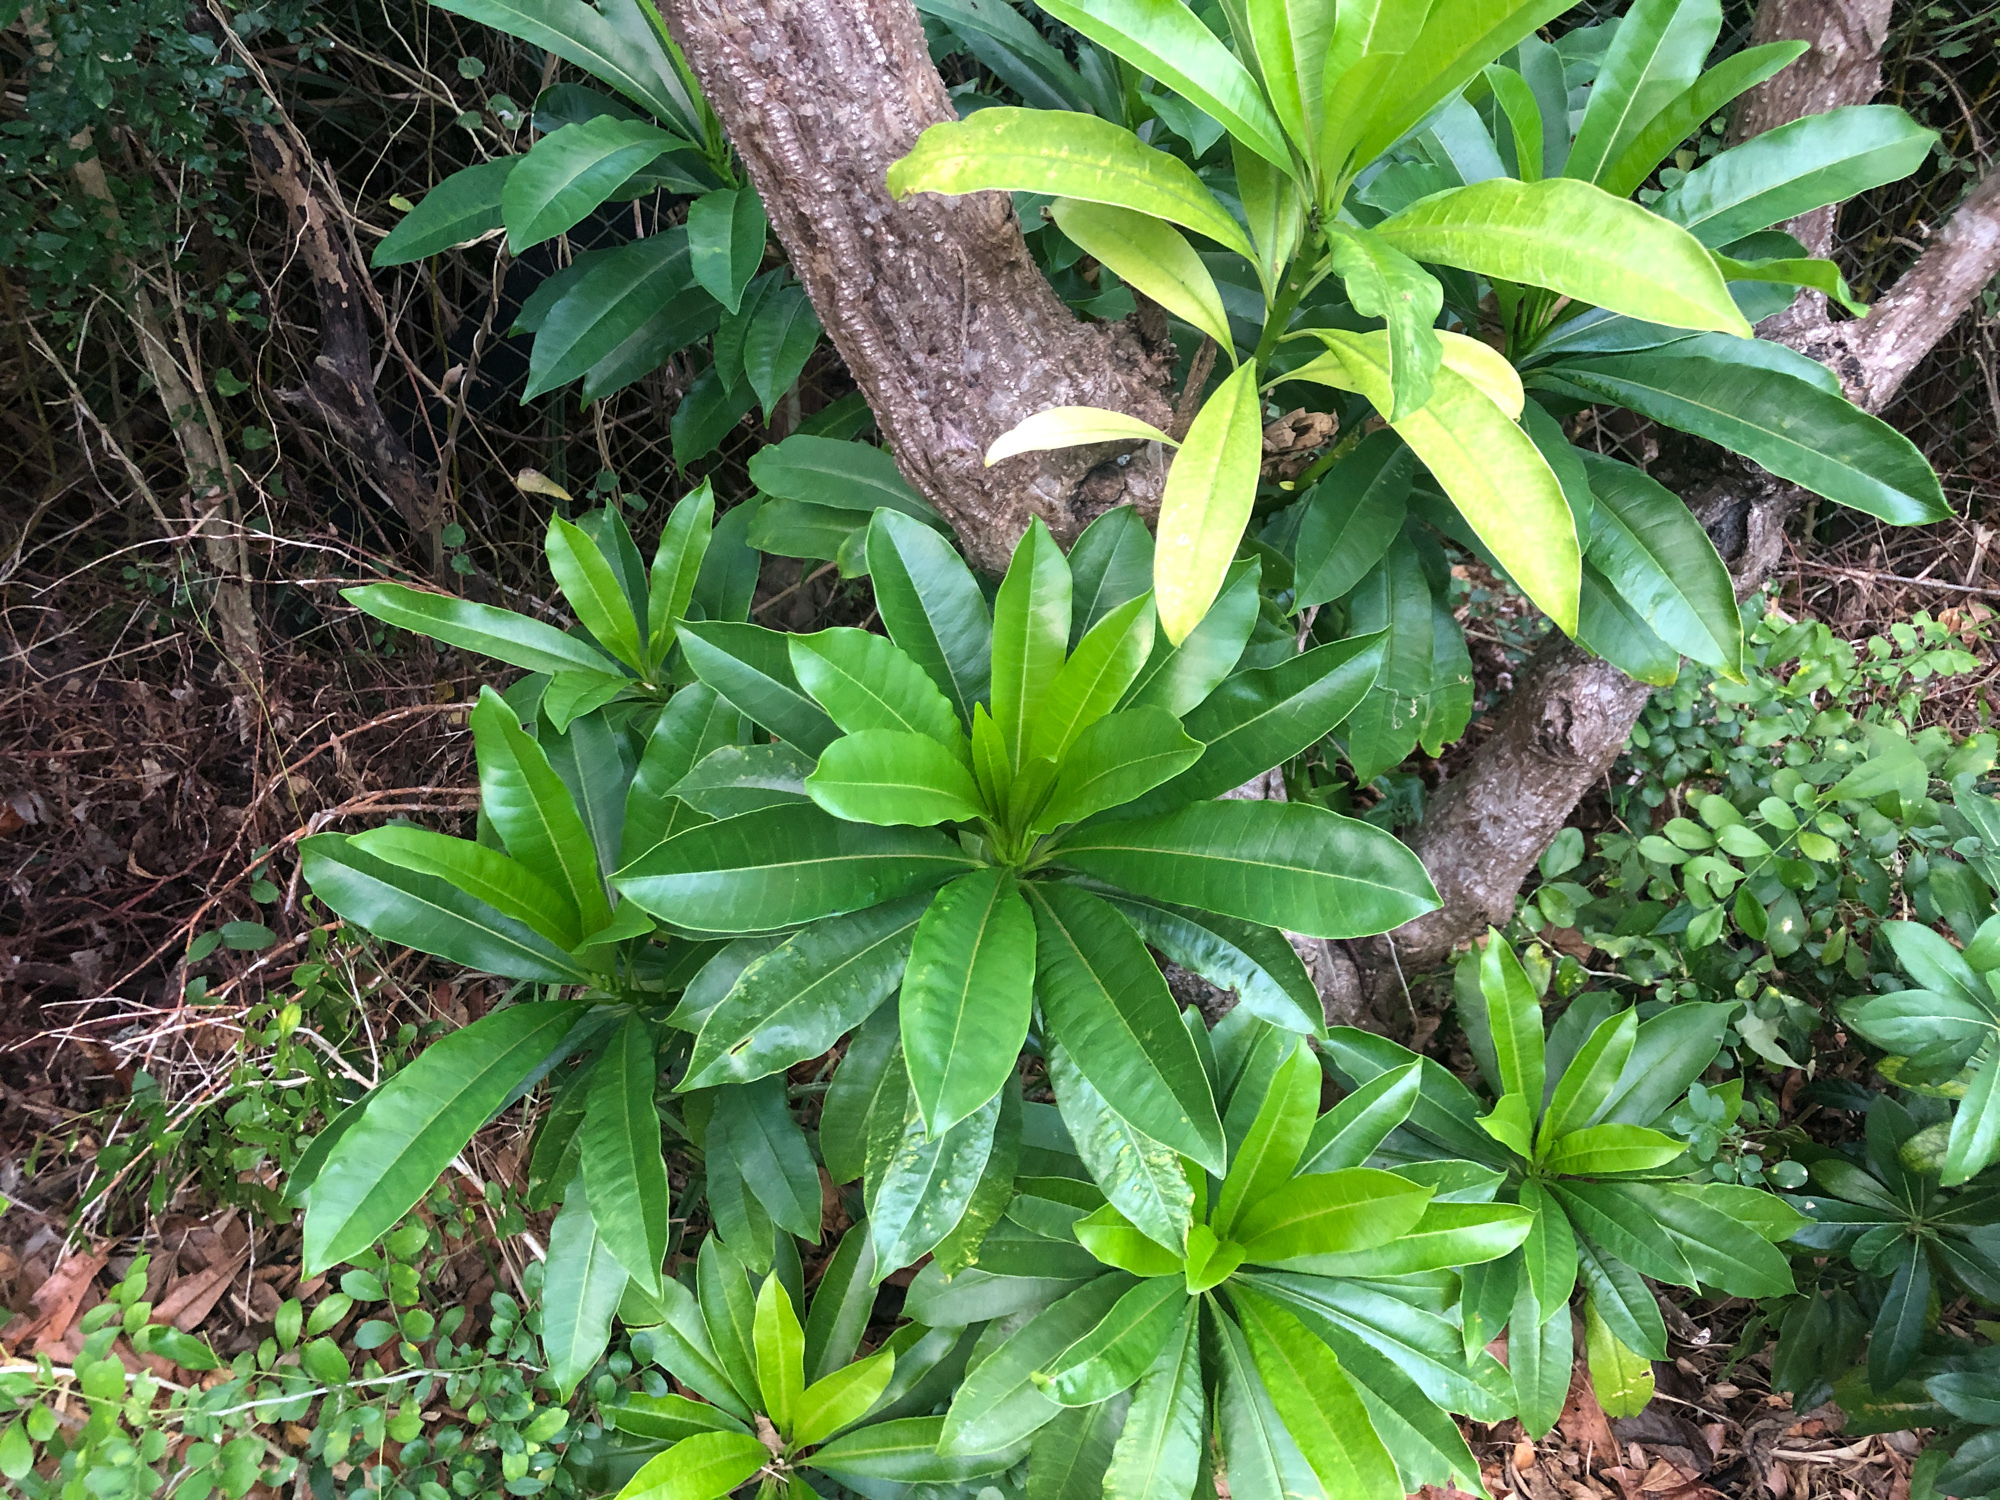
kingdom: Plantae
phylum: Tracheophyta
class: Magnoliopsida
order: Gentianales
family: Apocynaceae
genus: Cerbera
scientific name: Cerbera manghas
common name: Reva
